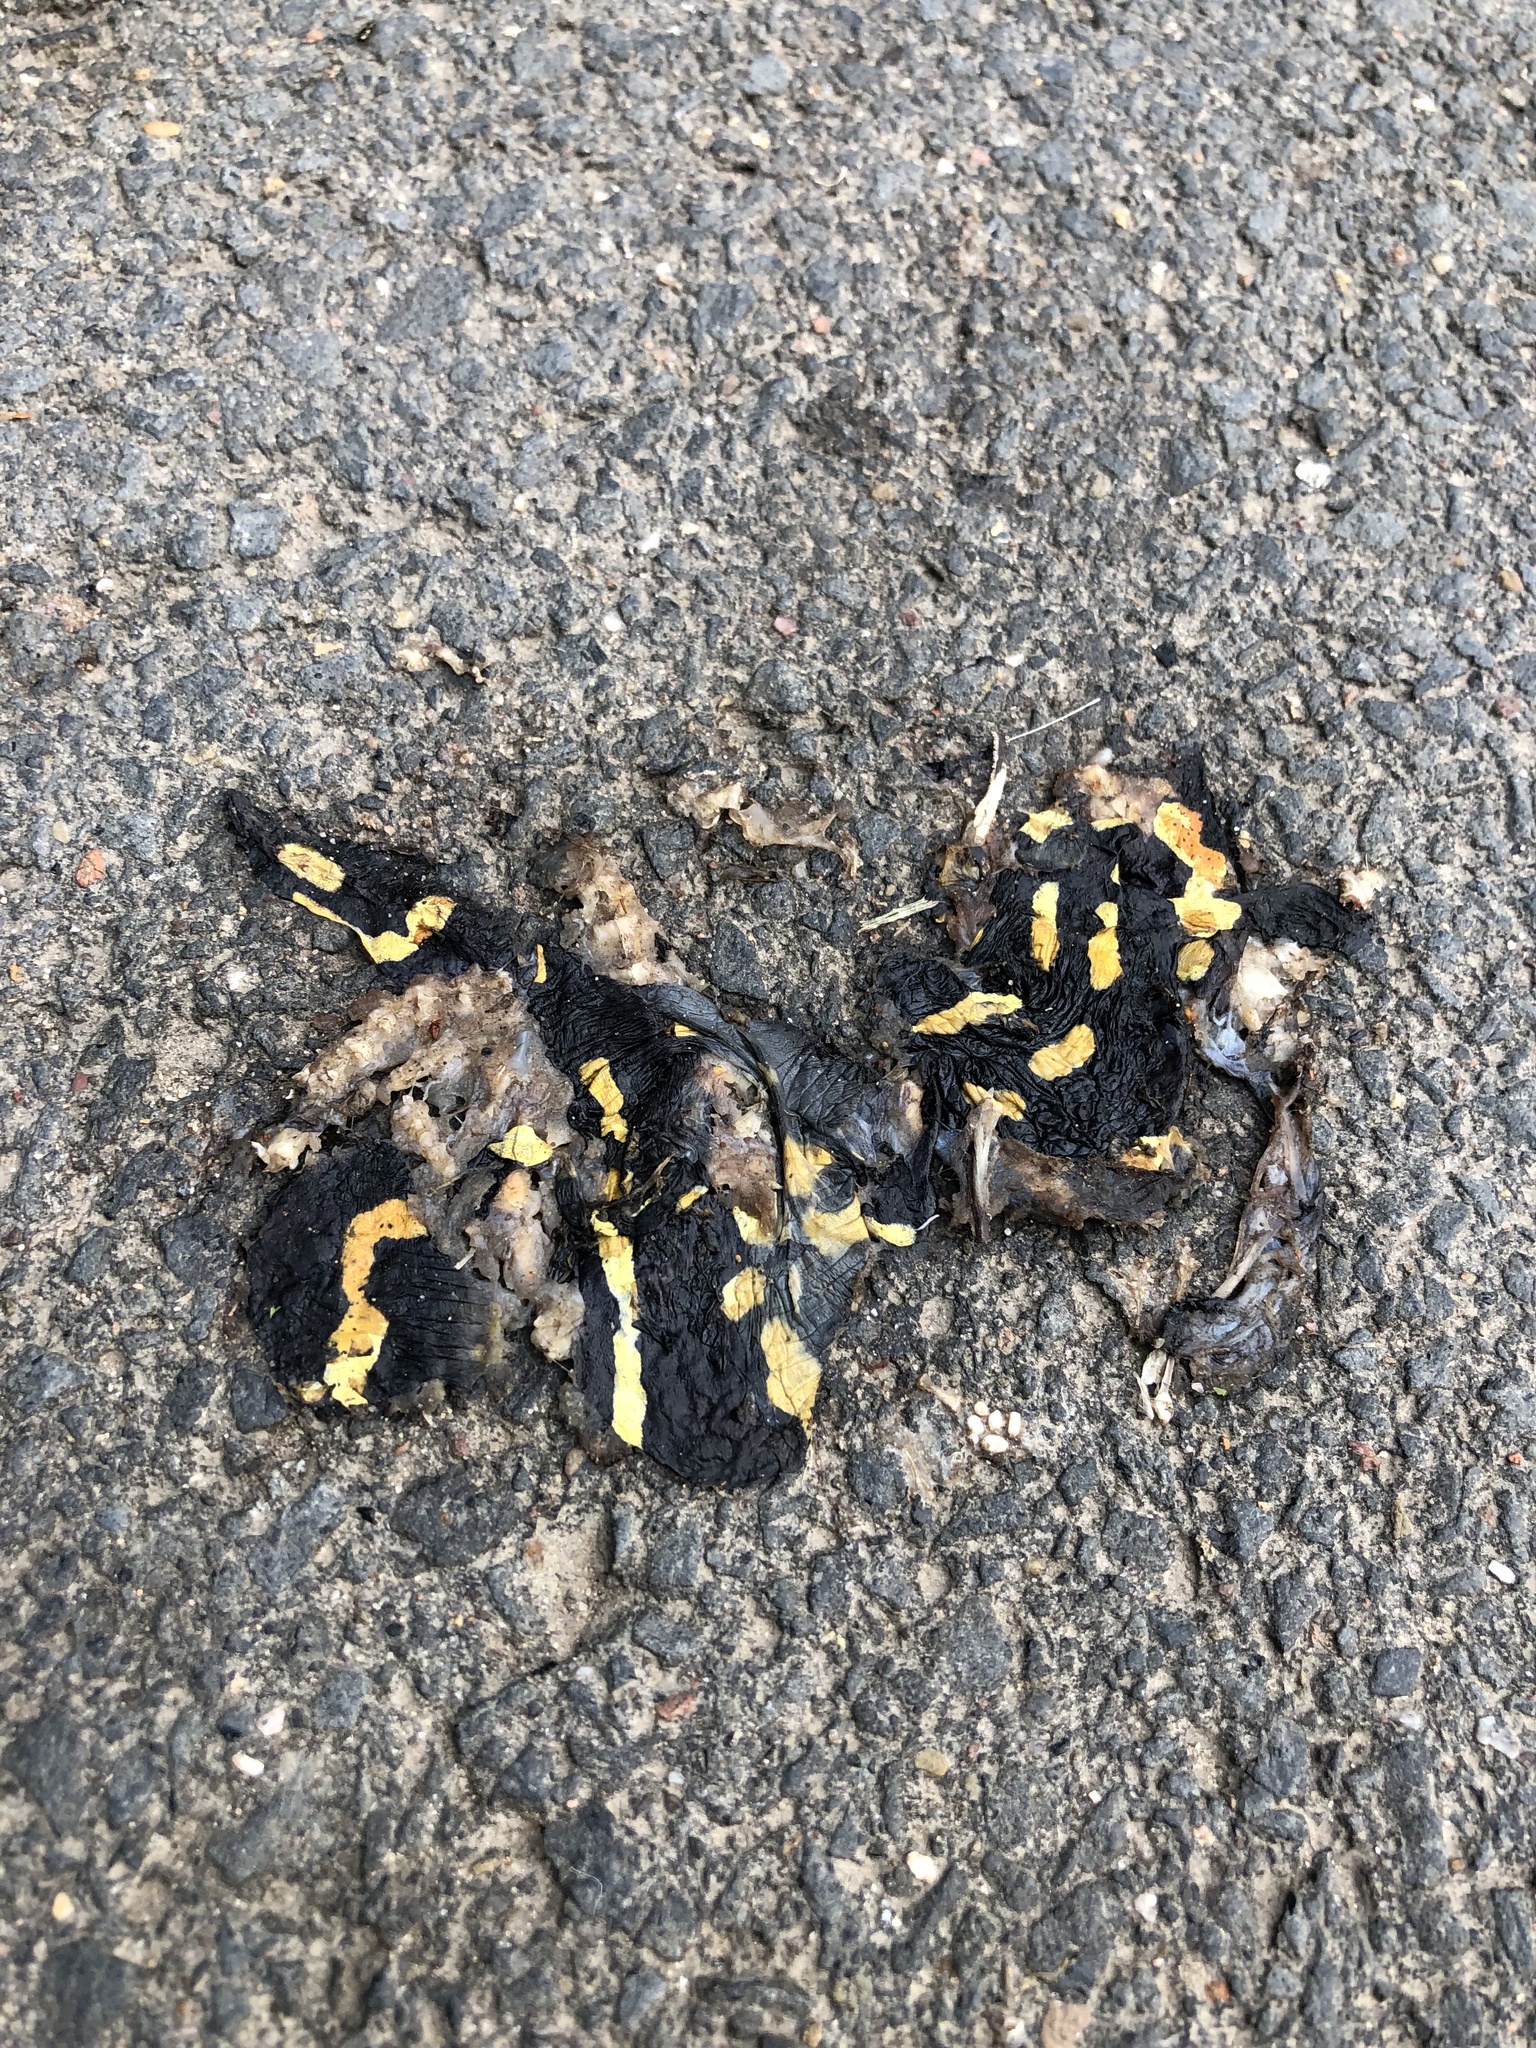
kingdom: Animalia
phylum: Chordata
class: Amphibia
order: Caudata
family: Salamandridae
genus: Salamandra
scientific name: Salamandra salamandra
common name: Fire salamander
